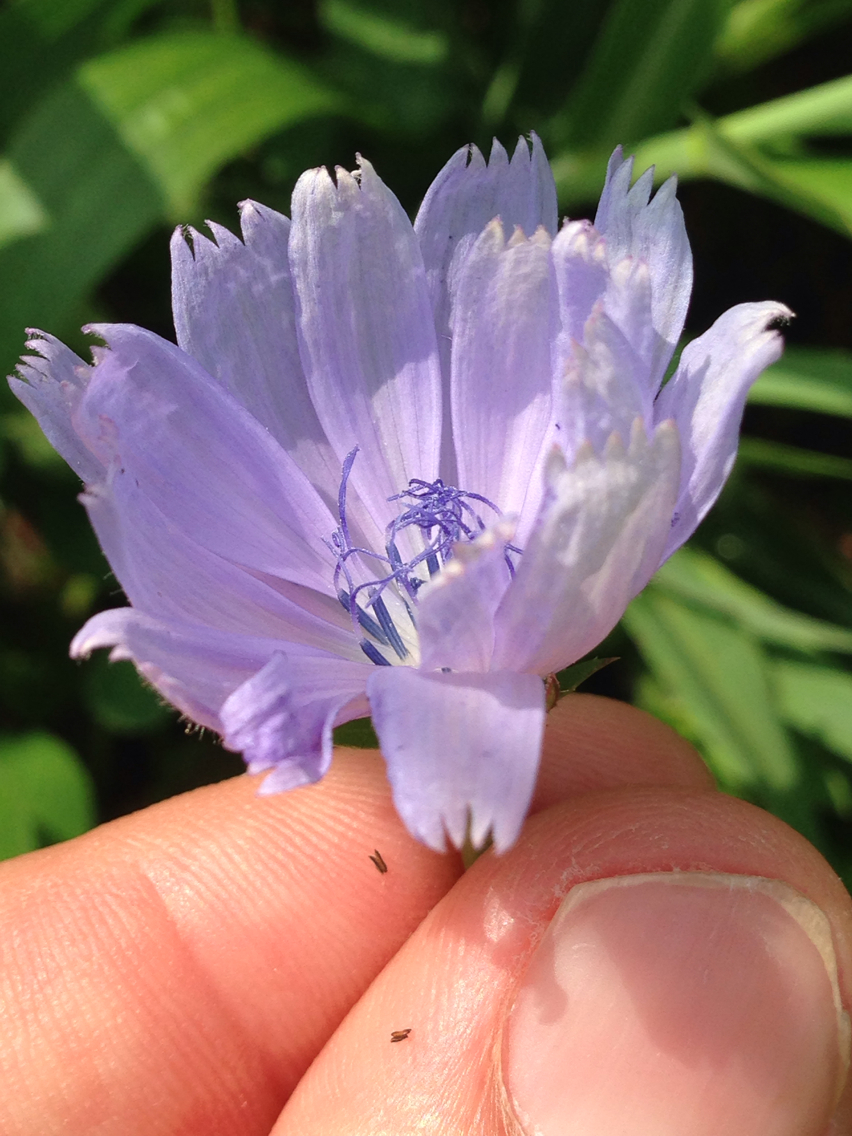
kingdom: Plantae
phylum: Tracheophyta
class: Magnoliopsida
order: Asterales
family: Asteraceae
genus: Cichorium
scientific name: Cichorium intybus
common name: Chicory
